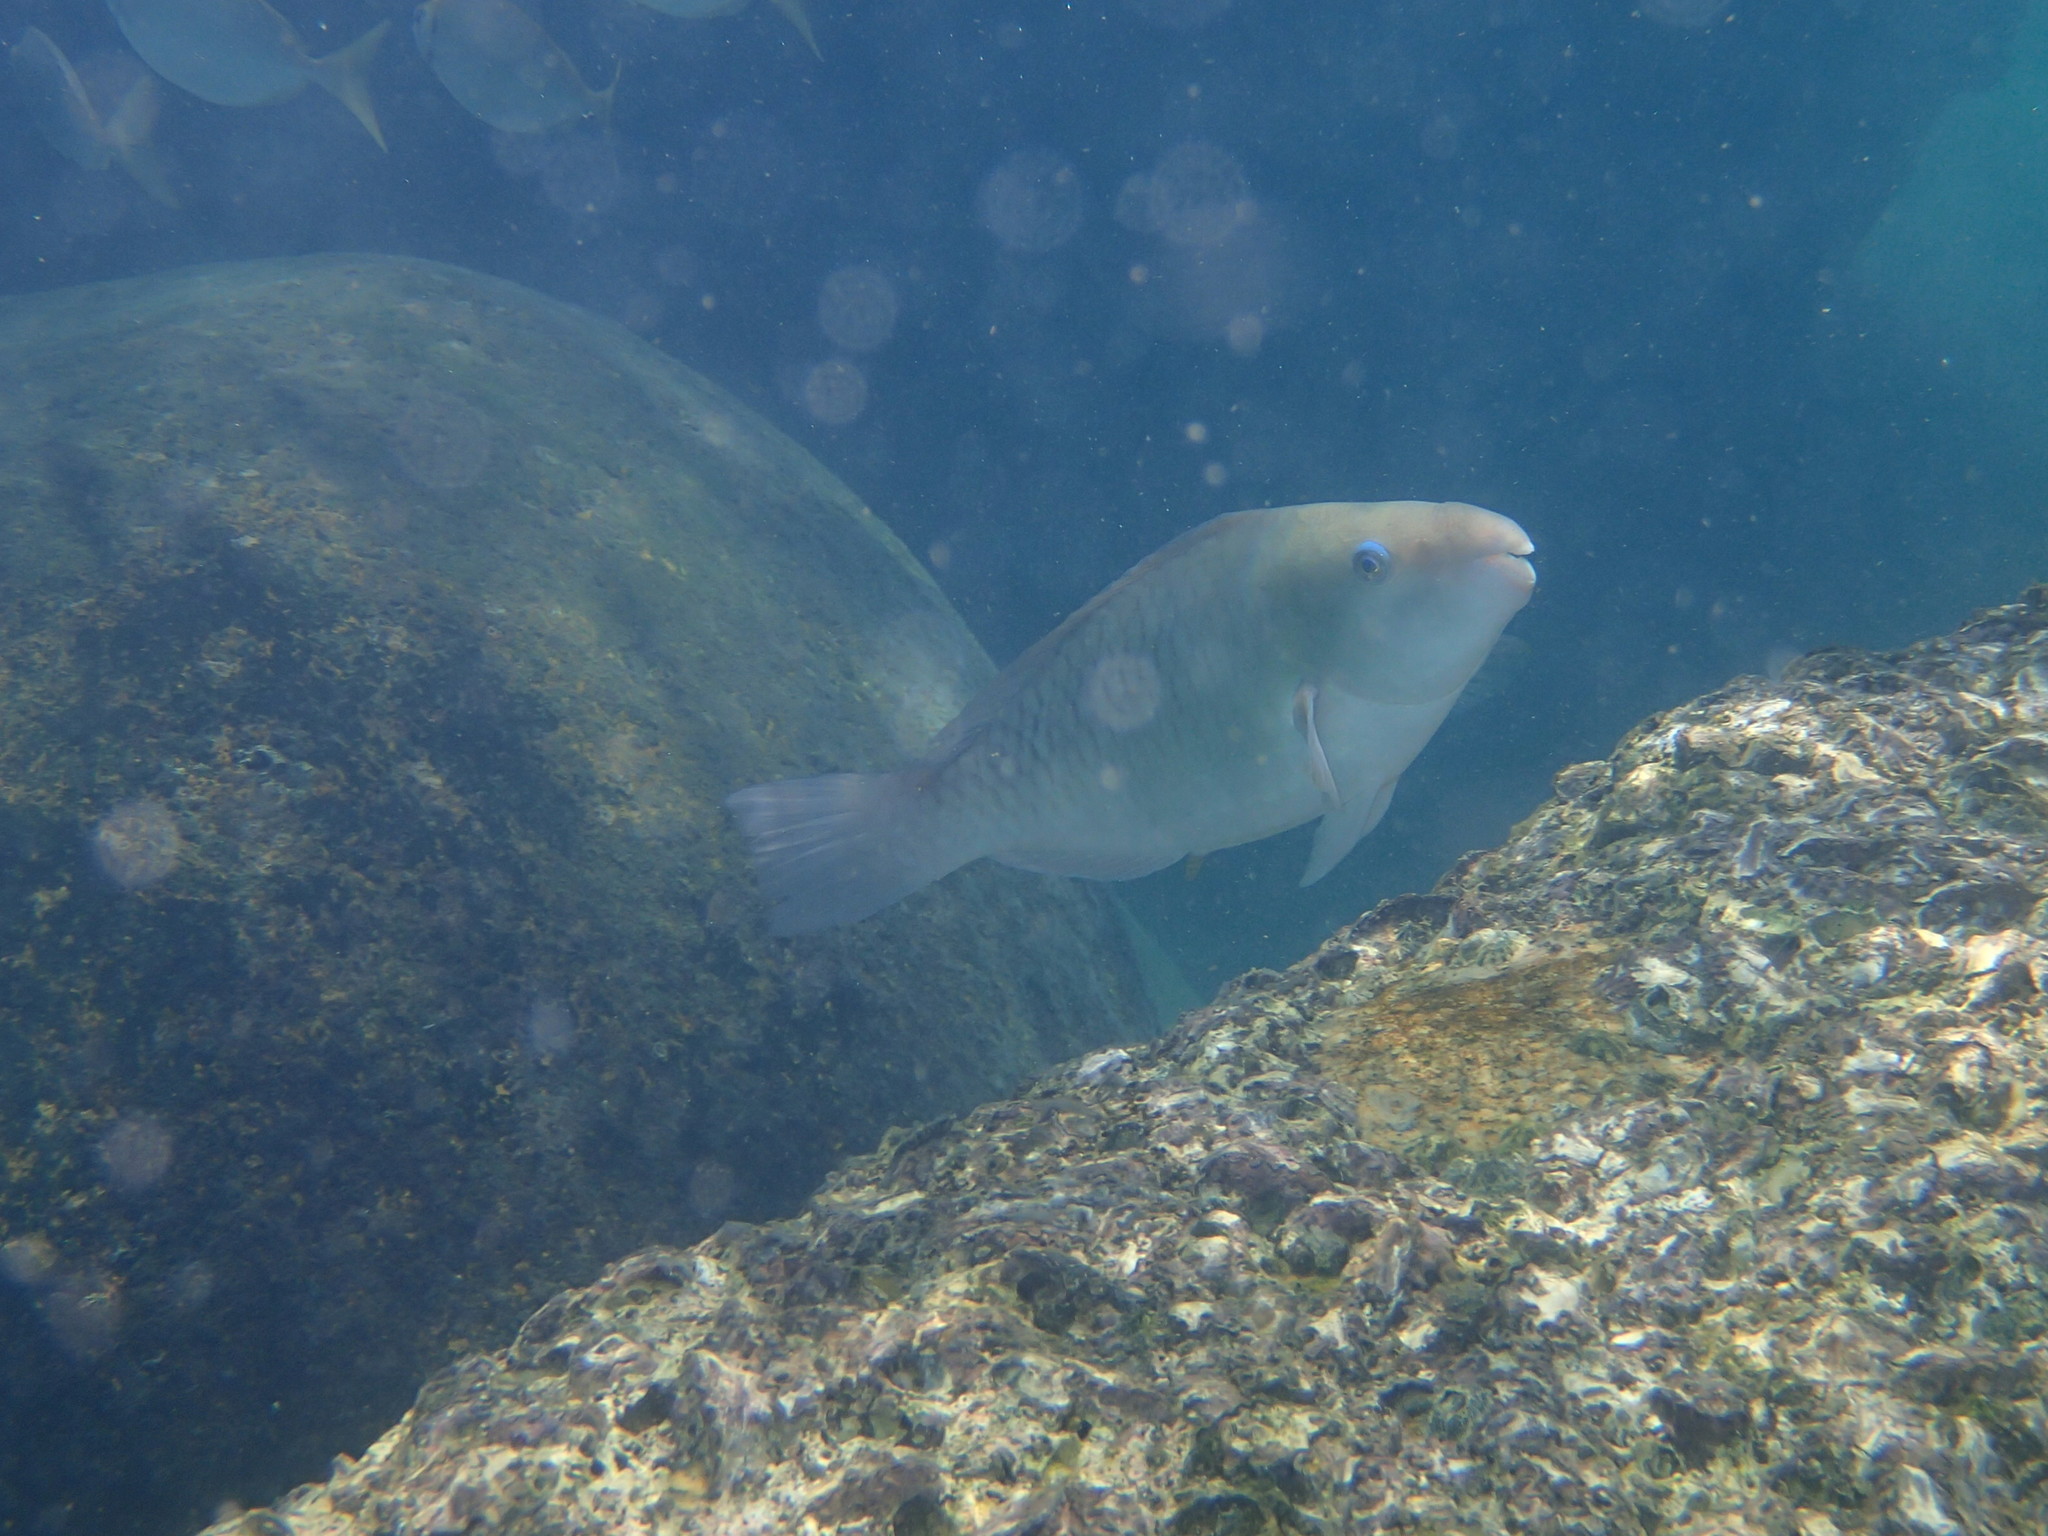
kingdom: Animalia
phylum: Chordata
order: Perciformes
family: Scaridae
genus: Hipposcarus
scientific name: Hipposcarus longiceps
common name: Pacific longnose parrotfish
